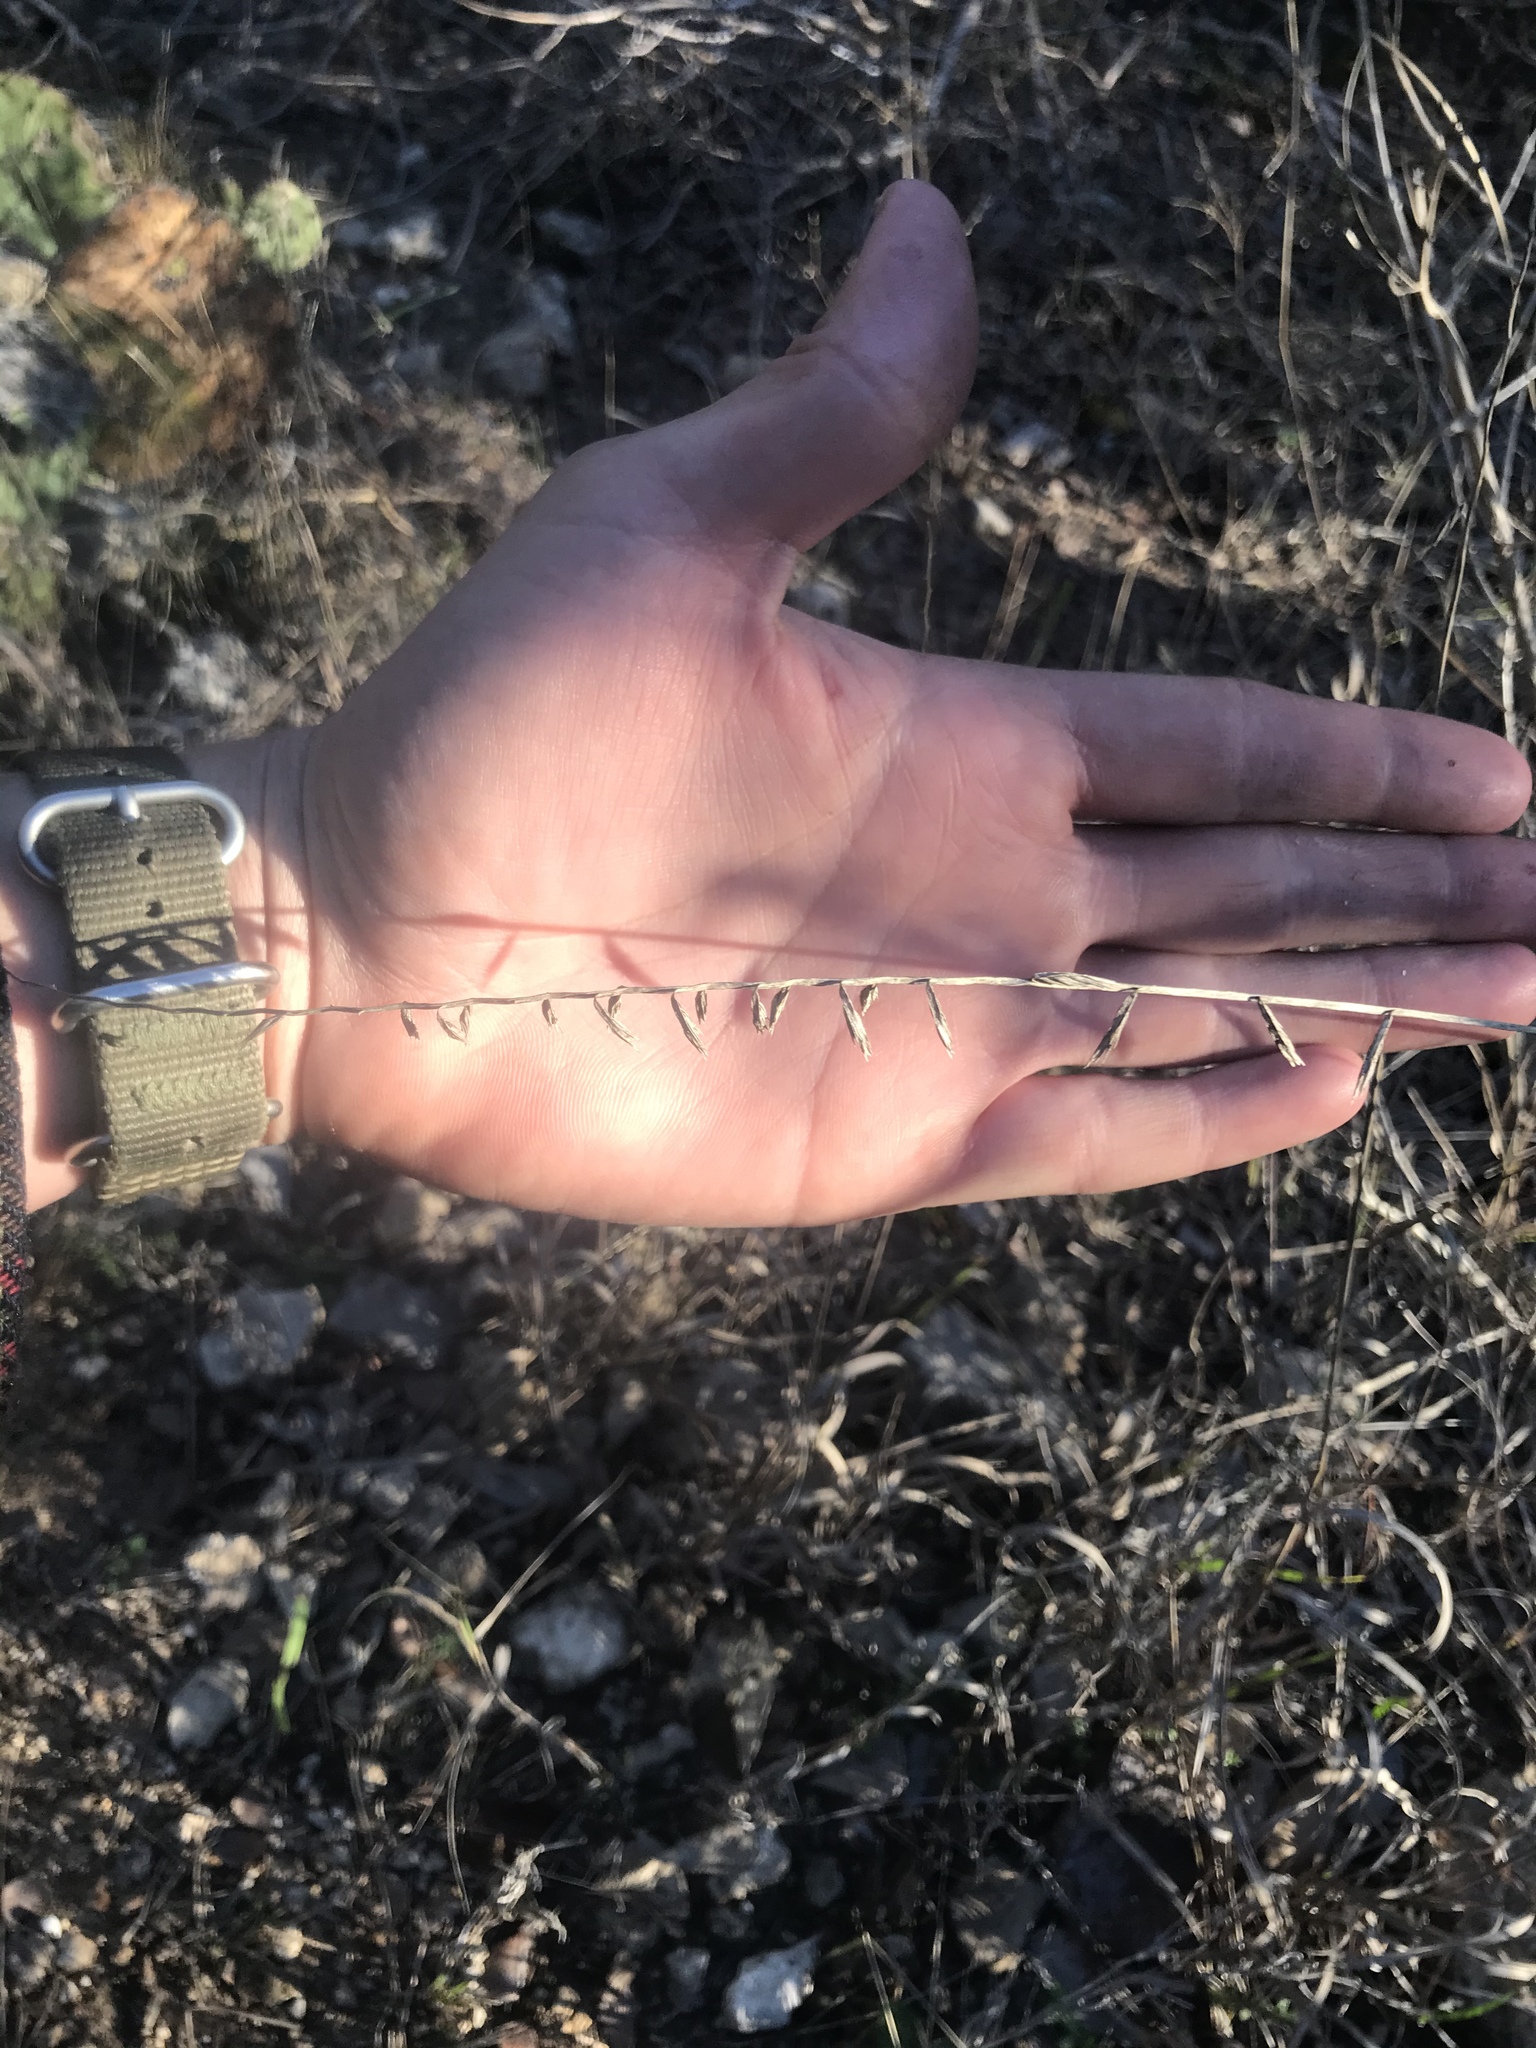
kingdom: Plantae
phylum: Tracheophyta
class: Liliopsida
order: Poales
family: Poaceae
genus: Bouteloua
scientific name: Bouteloua curtipendula
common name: Side-oats grama
